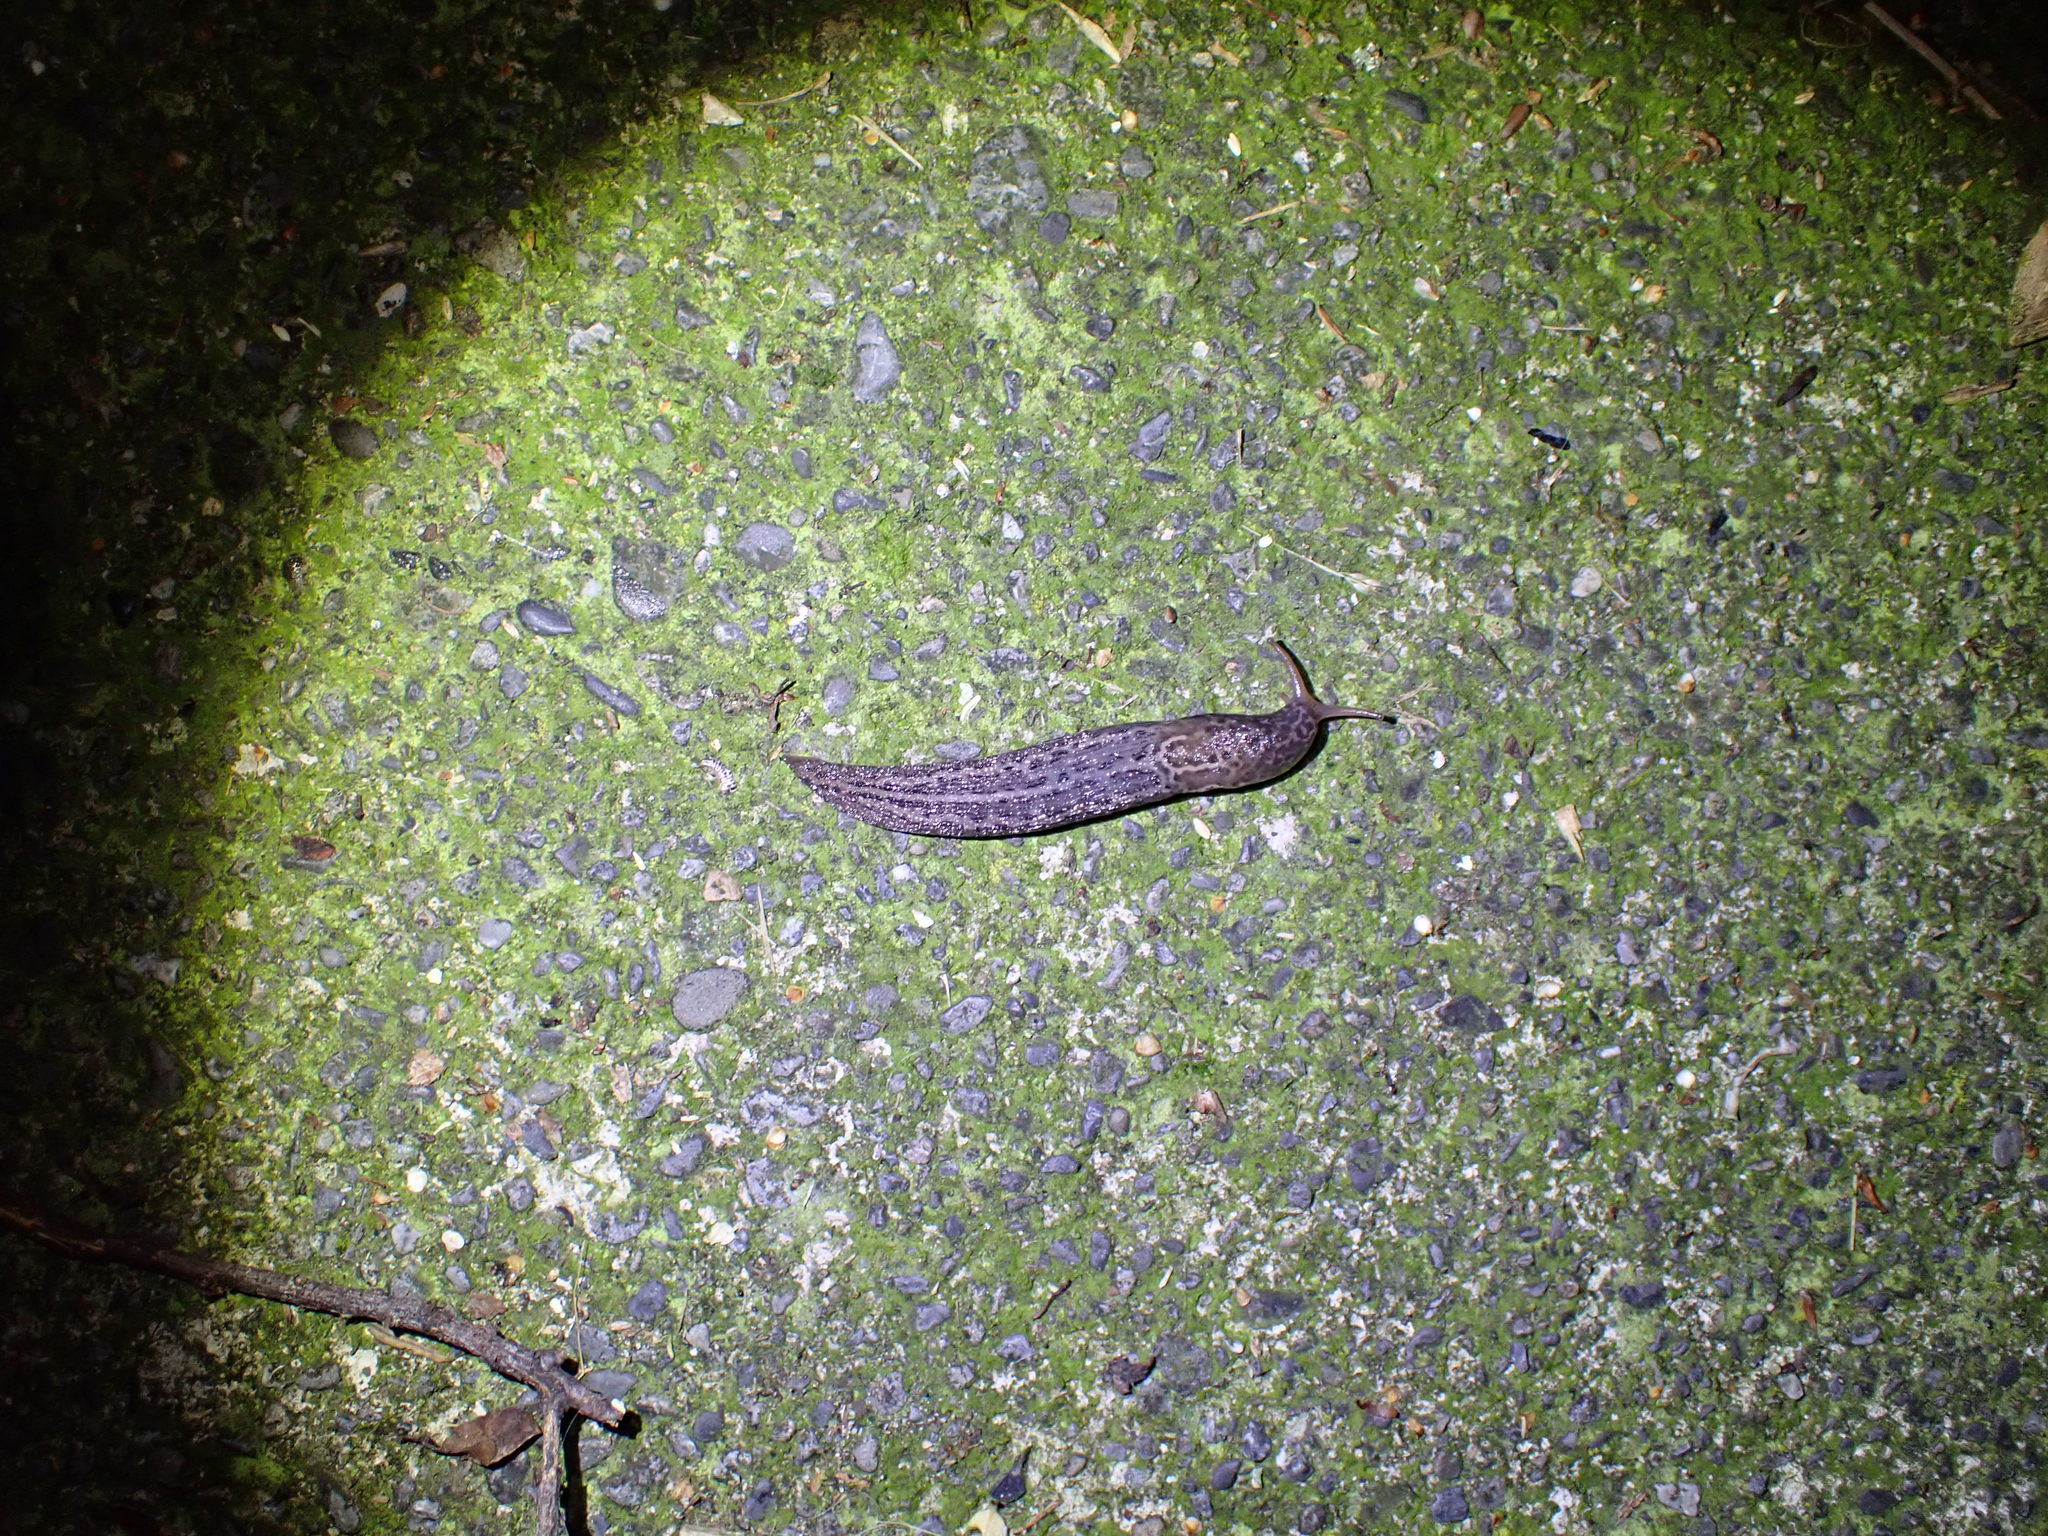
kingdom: Animalia
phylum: Mollusca
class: Gastropoda
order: Stylommatophora
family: Limacidae
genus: Limax
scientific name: Limax maximus
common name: Great grey slug
